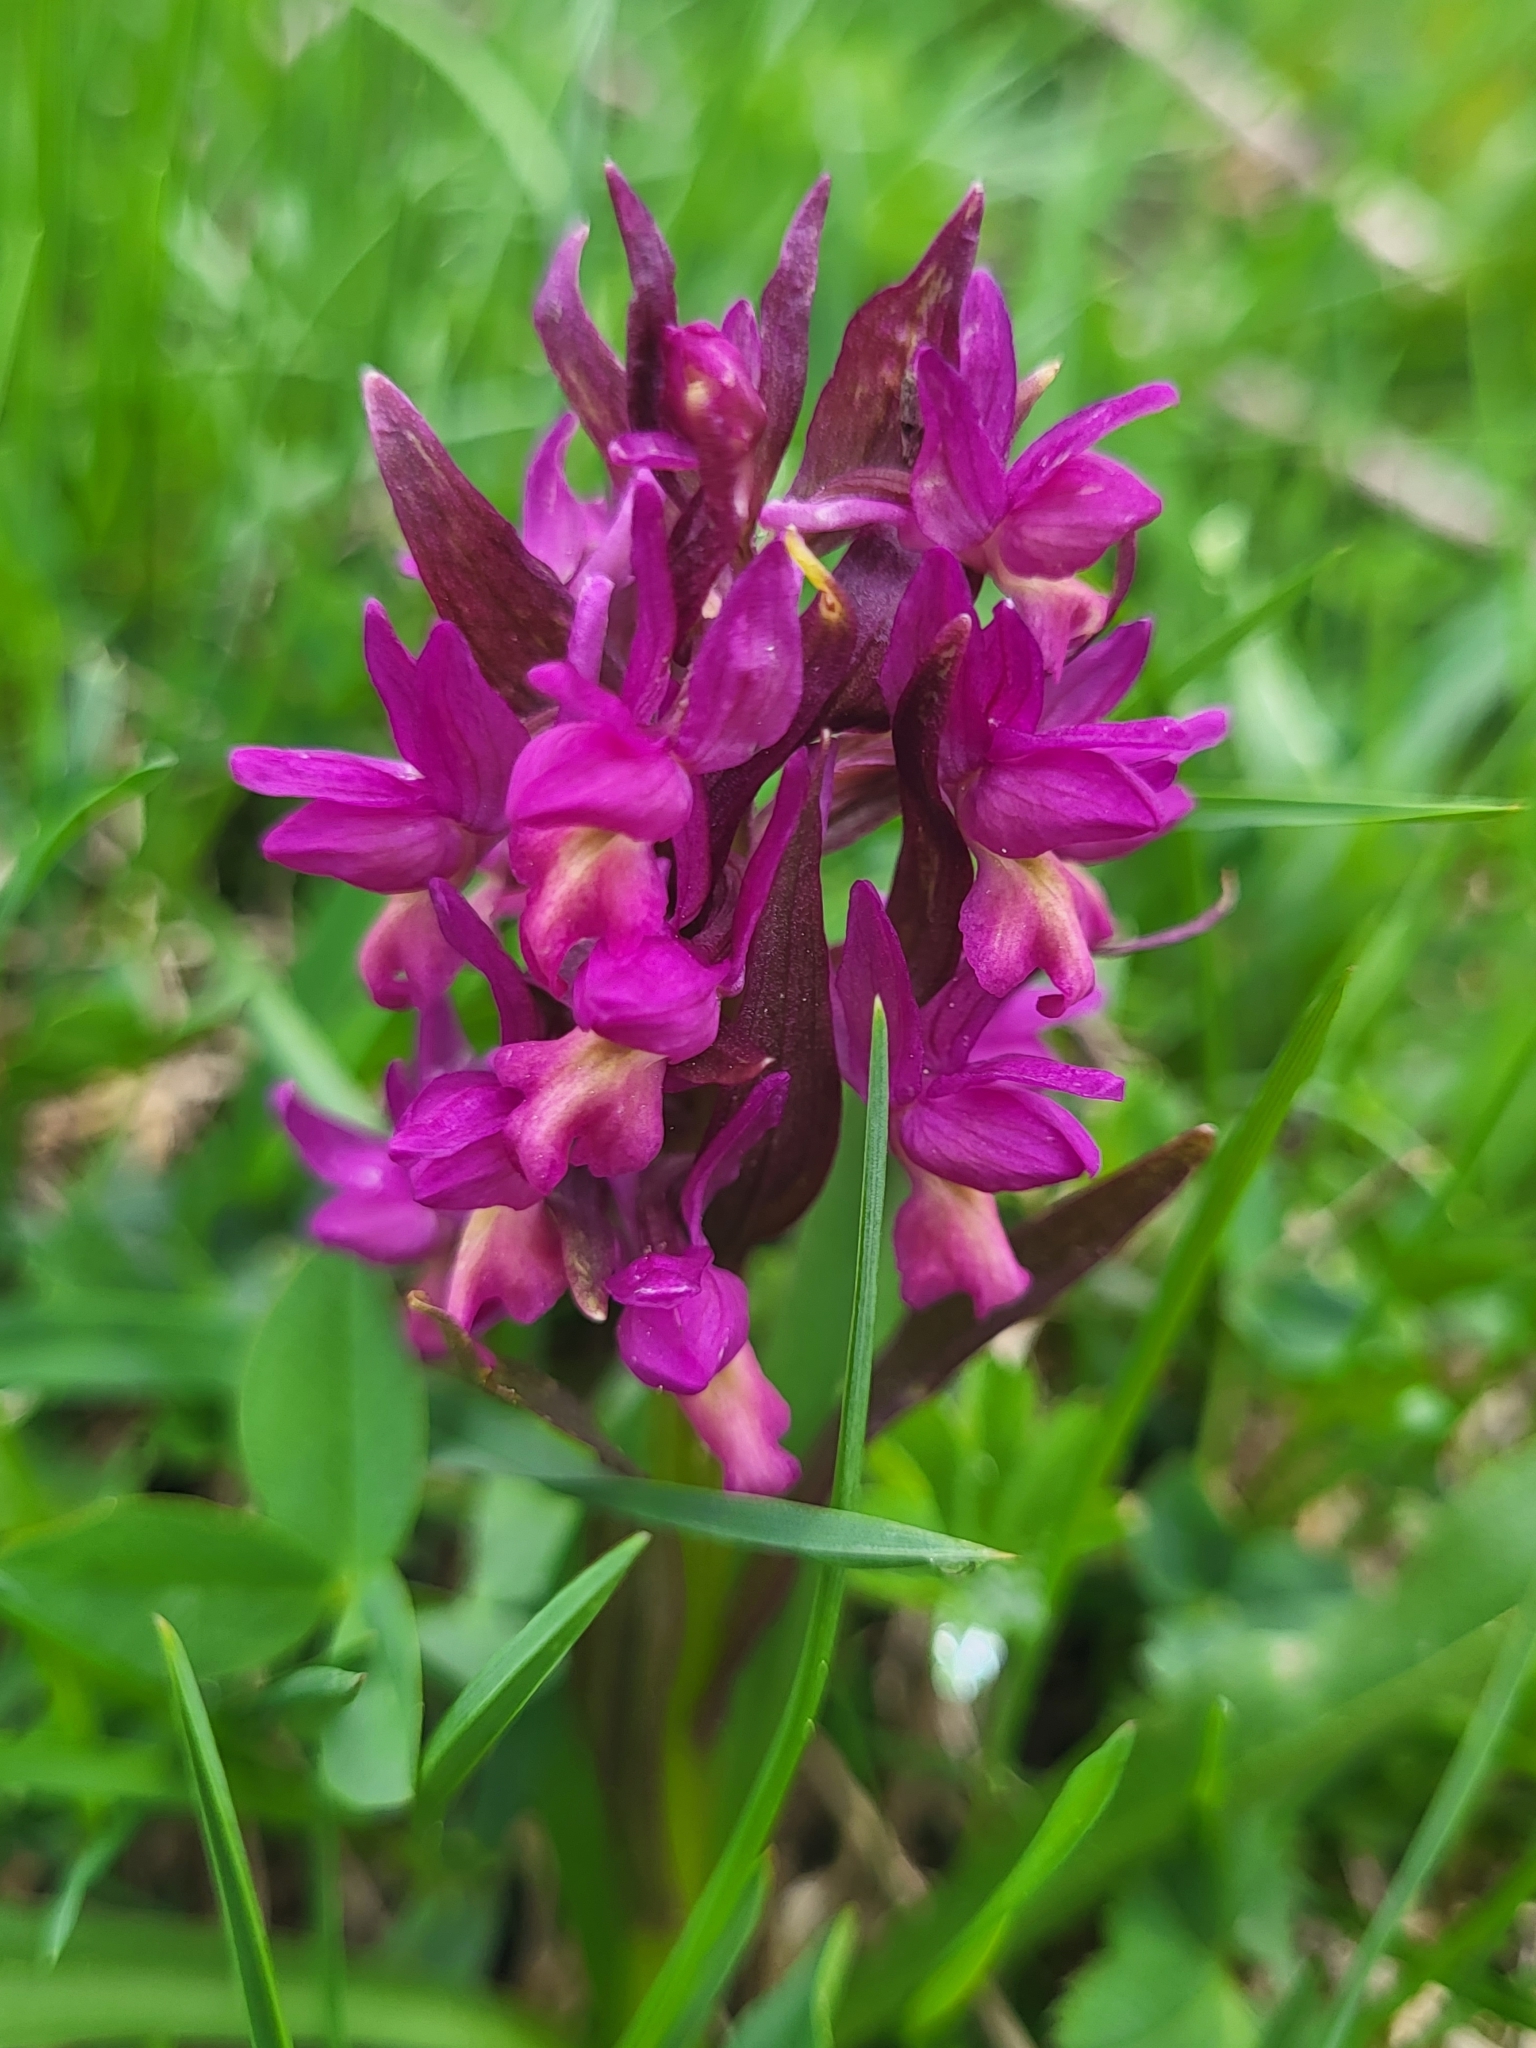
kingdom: Plantae
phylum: Tracheophyta
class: Liliopsida
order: Asparagales
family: Orchidaceae
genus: Dactylorhiza
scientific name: Dactylorhiza romana
